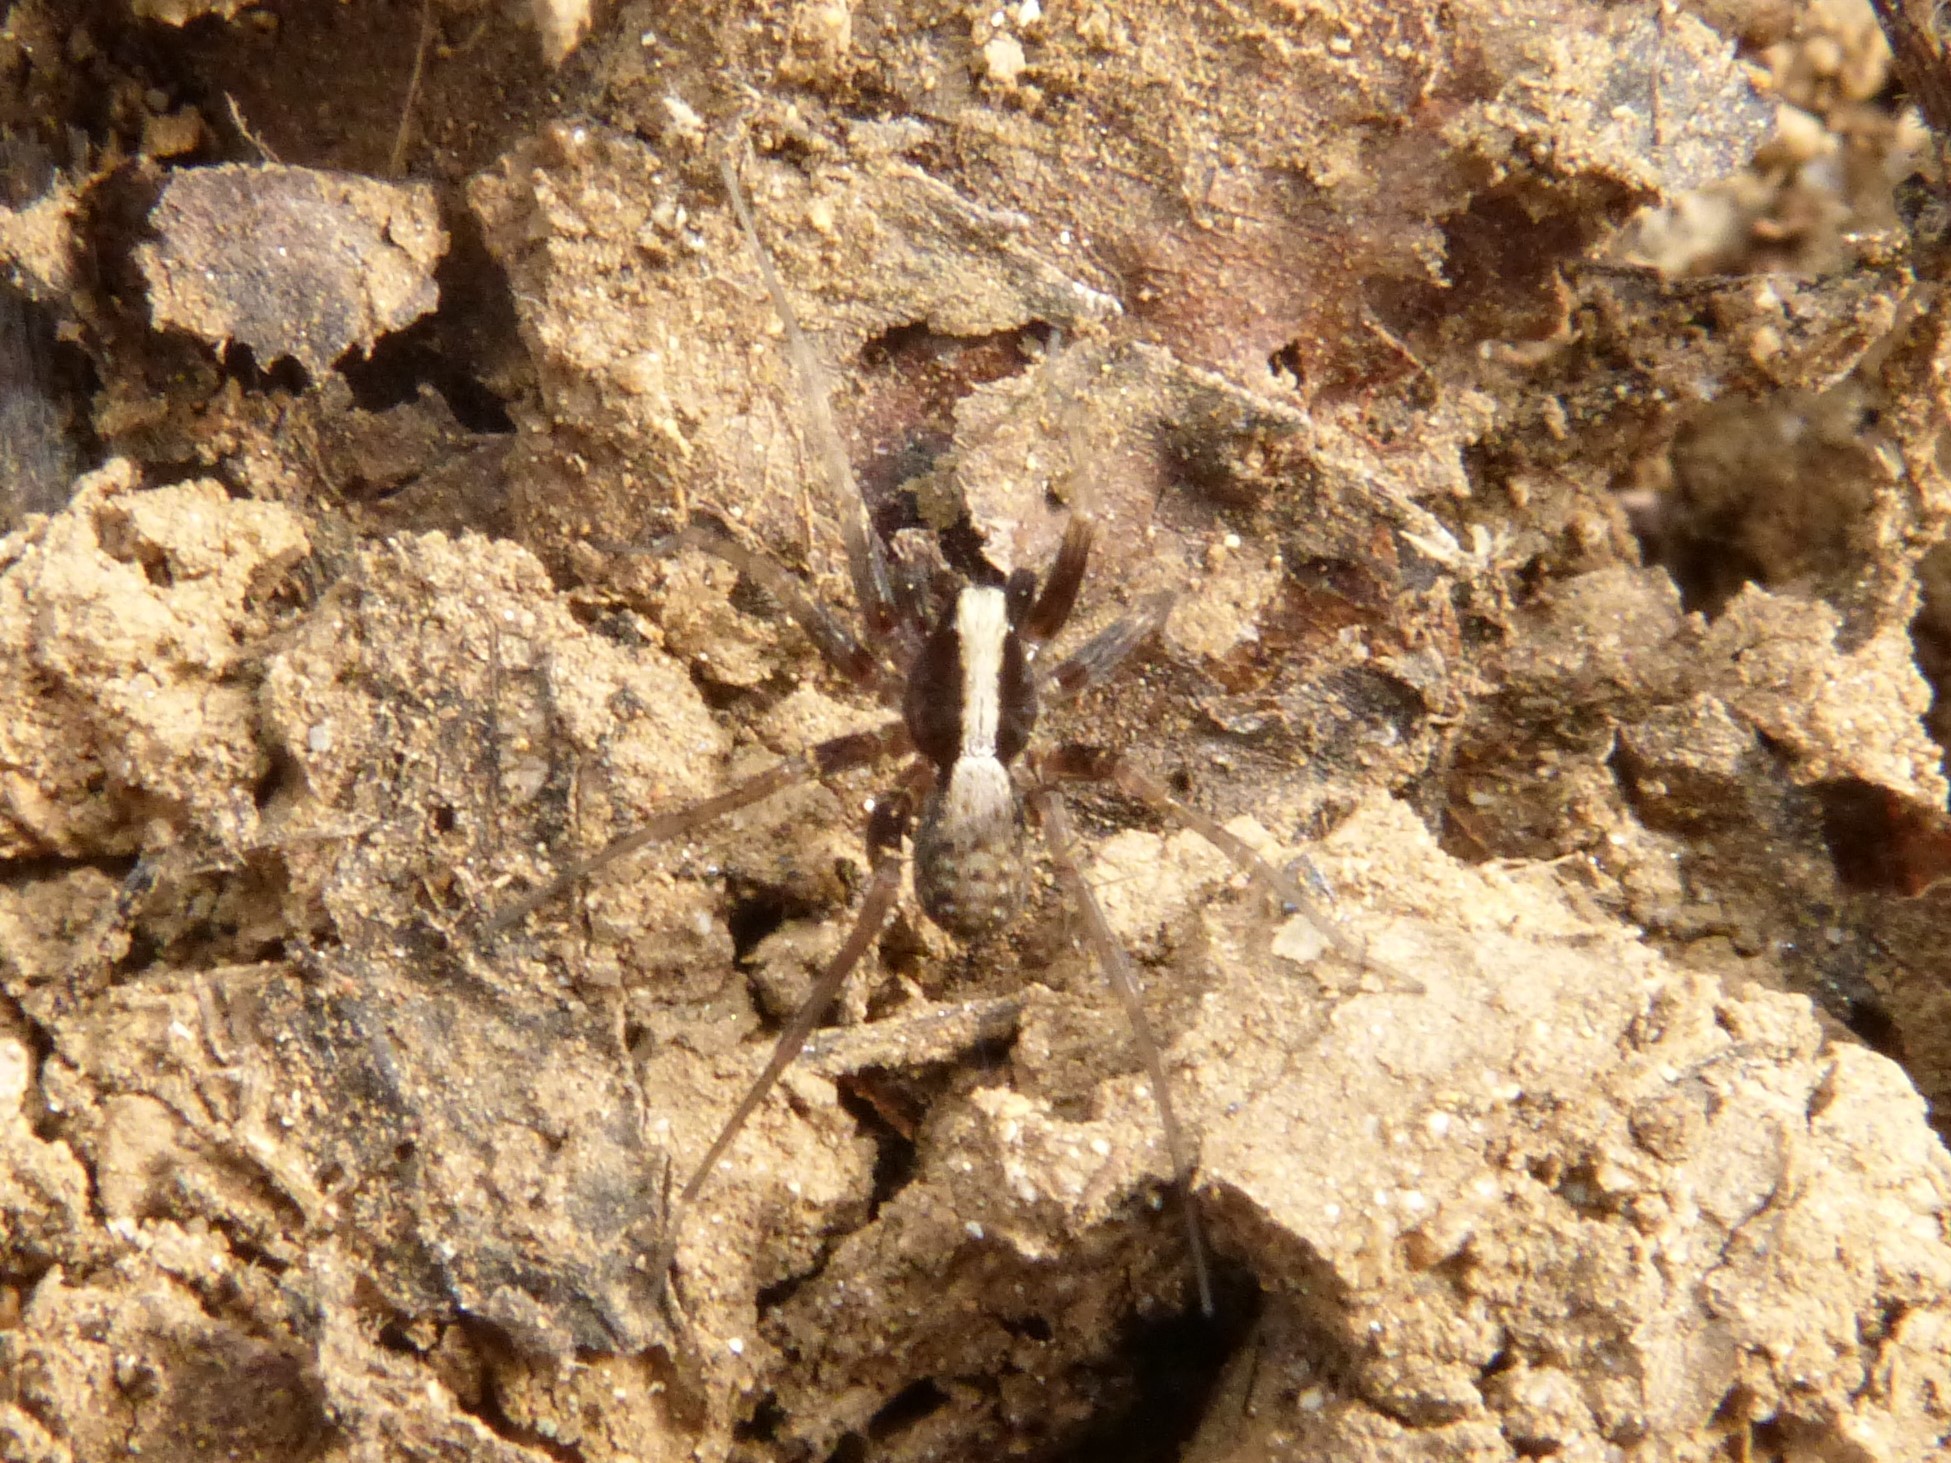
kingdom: Animalia
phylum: Arthropoda
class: Arachnida
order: Araneae
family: Lycosidae
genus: Pardosa
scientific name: Pardosa
